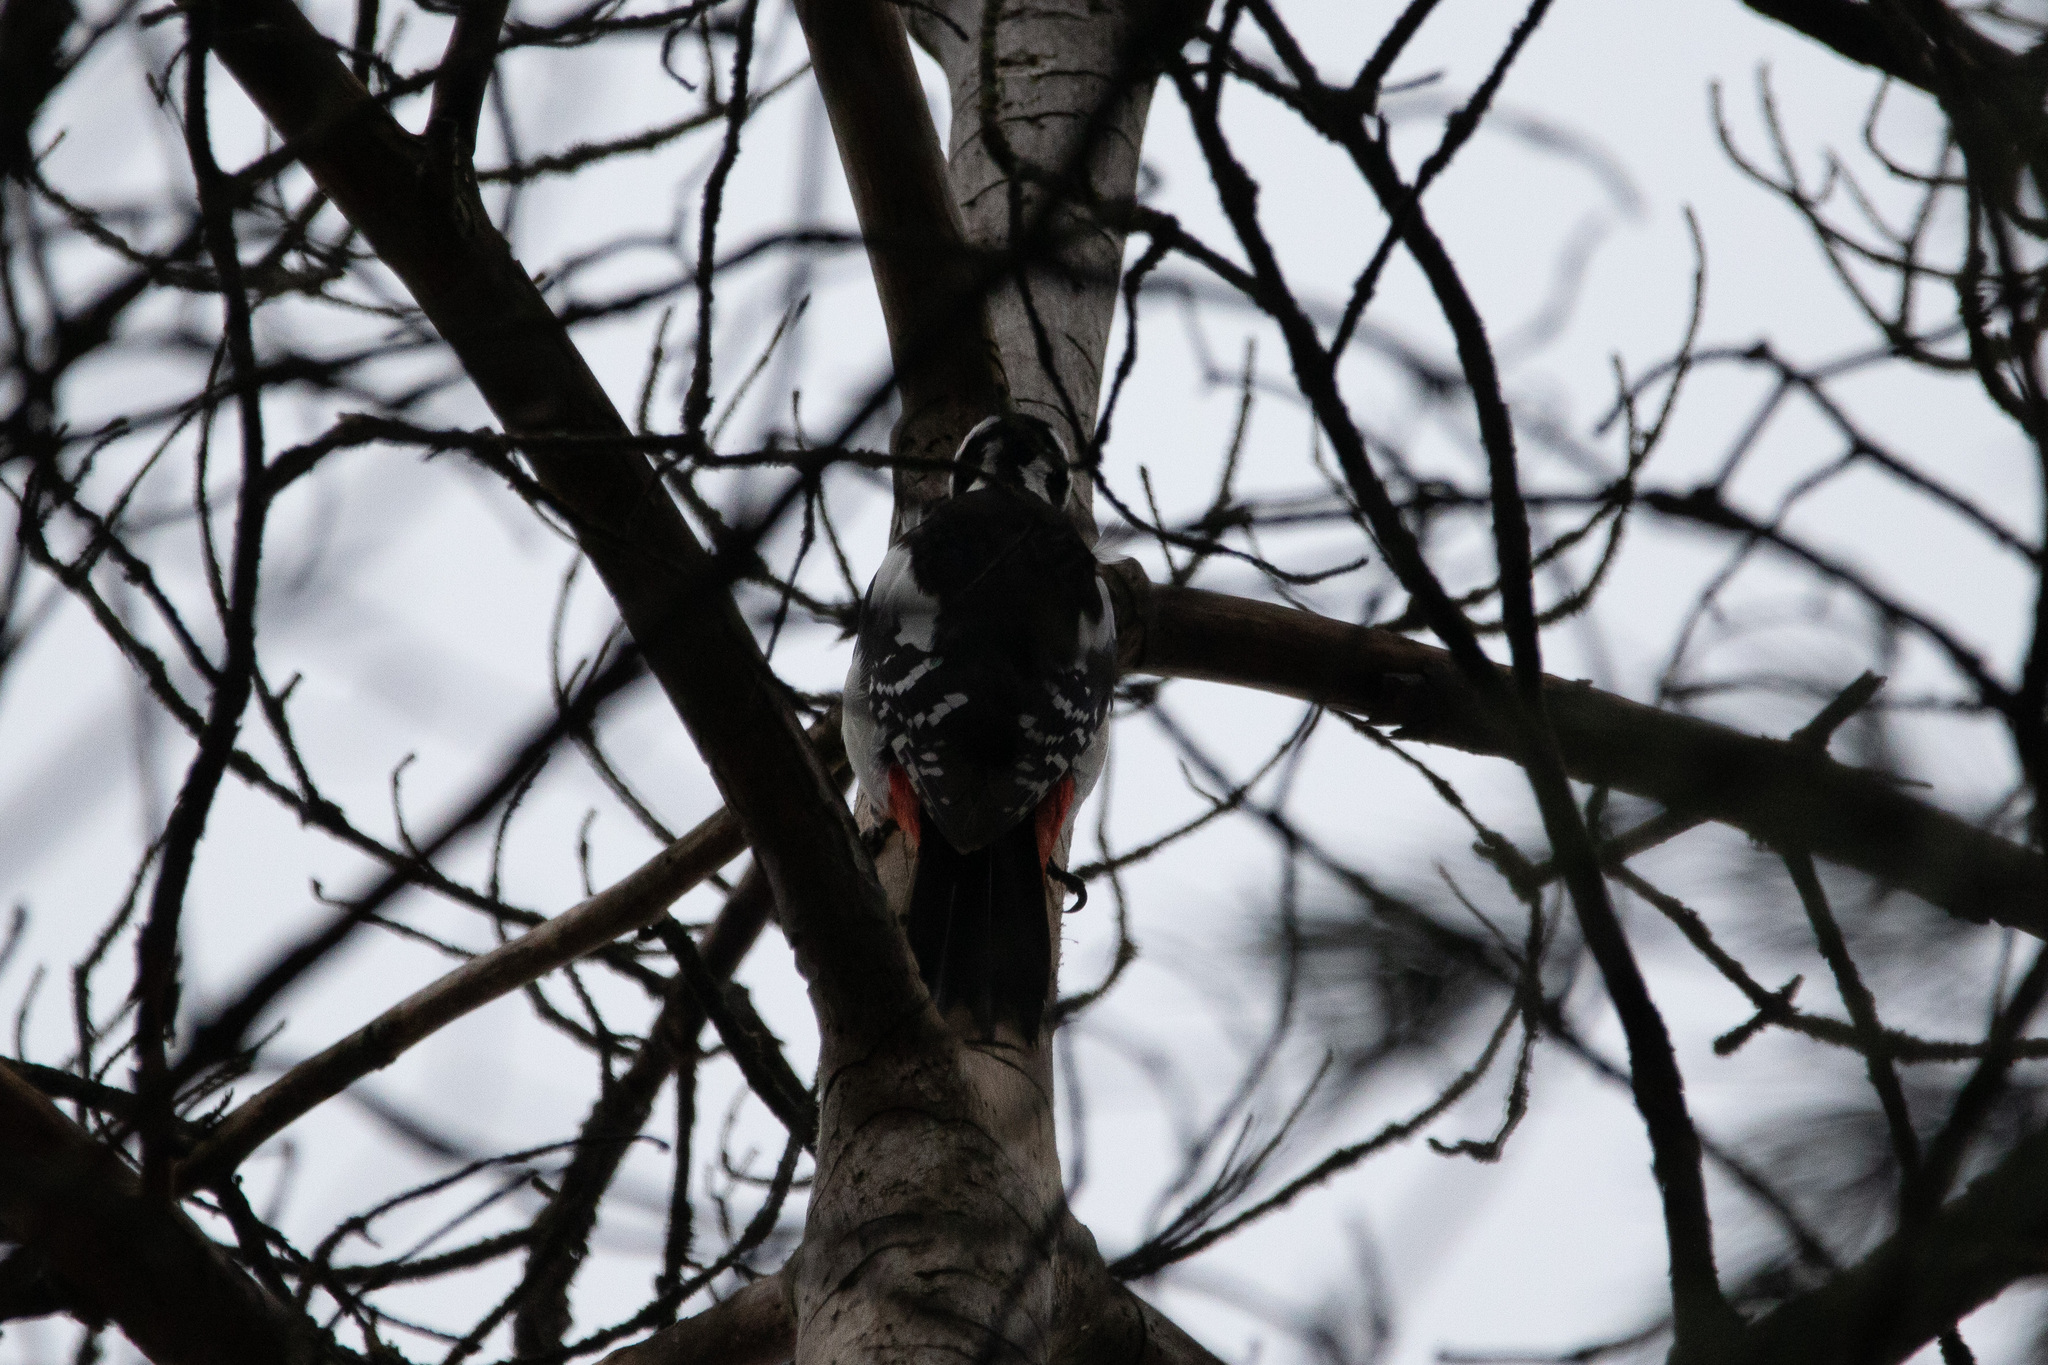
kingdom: Animalia
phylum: Chordata
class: Aves
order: Piciformes
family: Picidae
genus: Dendrocopos
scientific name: Dendrocopos major
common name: Great spotted woodpecker
